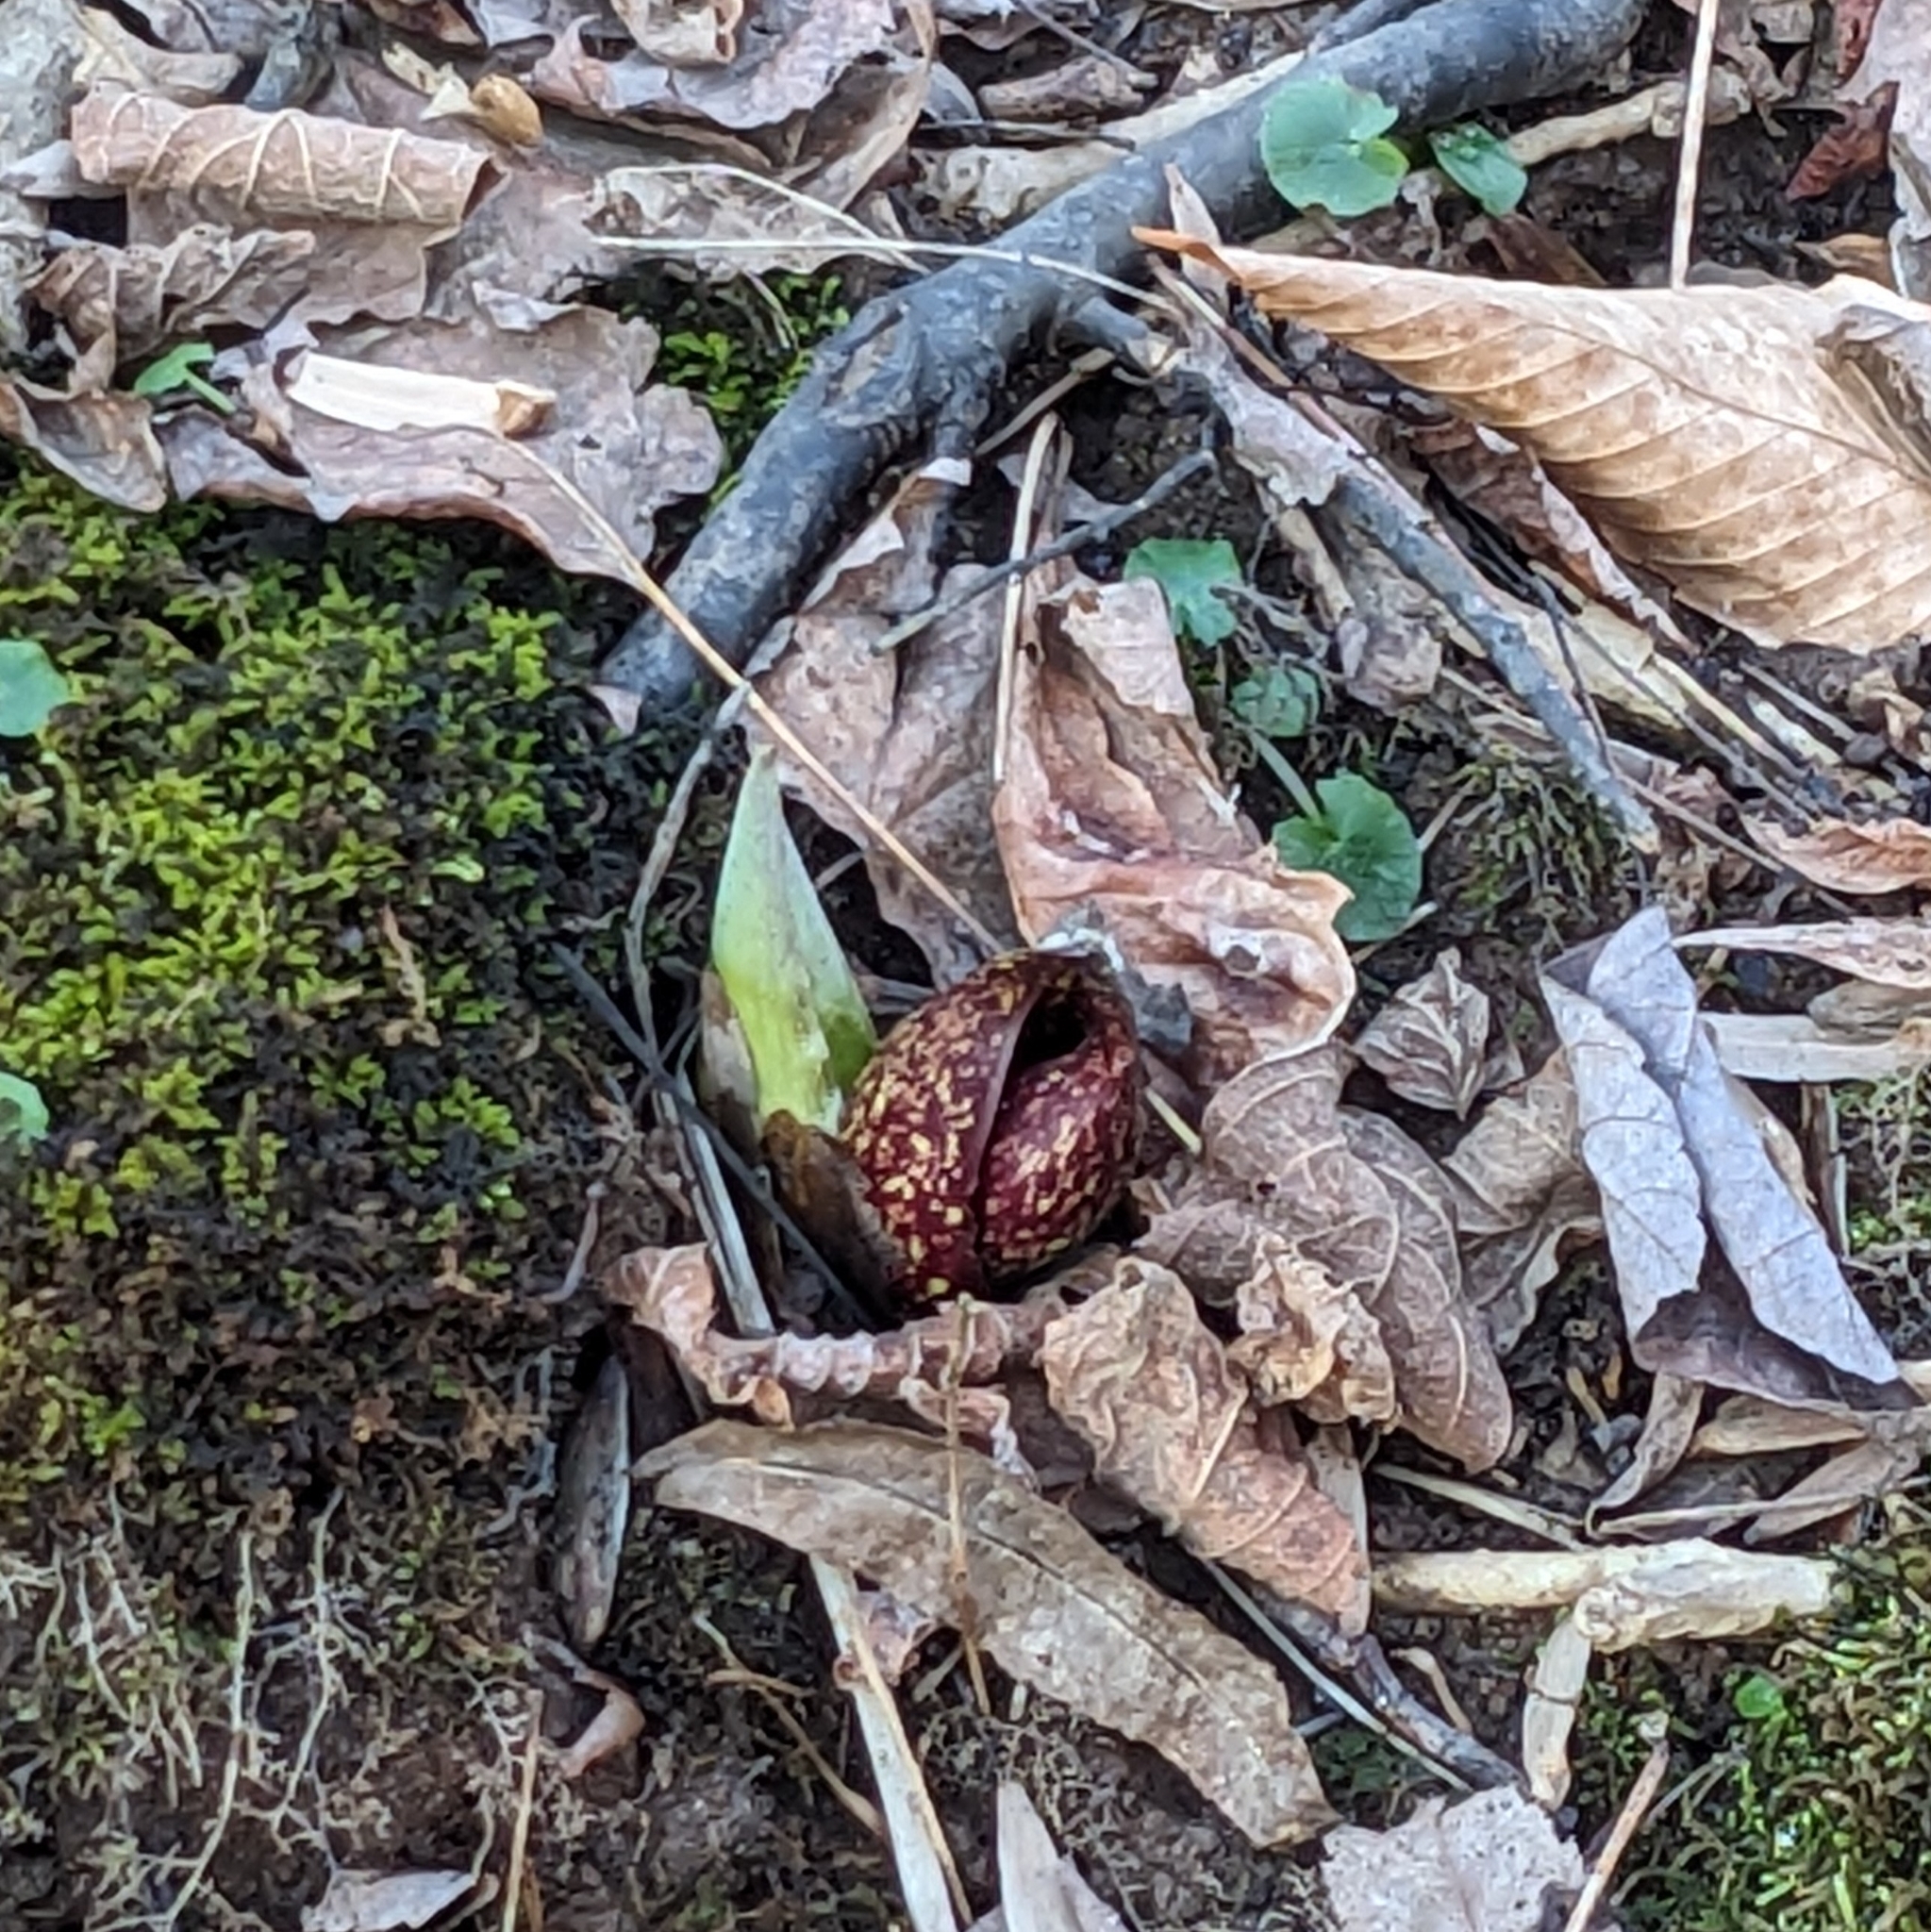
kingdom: Plantae
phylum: Tracheophyta
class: Liliopsida
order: Alismatales
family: Araceae
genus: Symplocarpus
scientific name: Symplocarpus foetidus
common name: Eastern skunk cabbage
